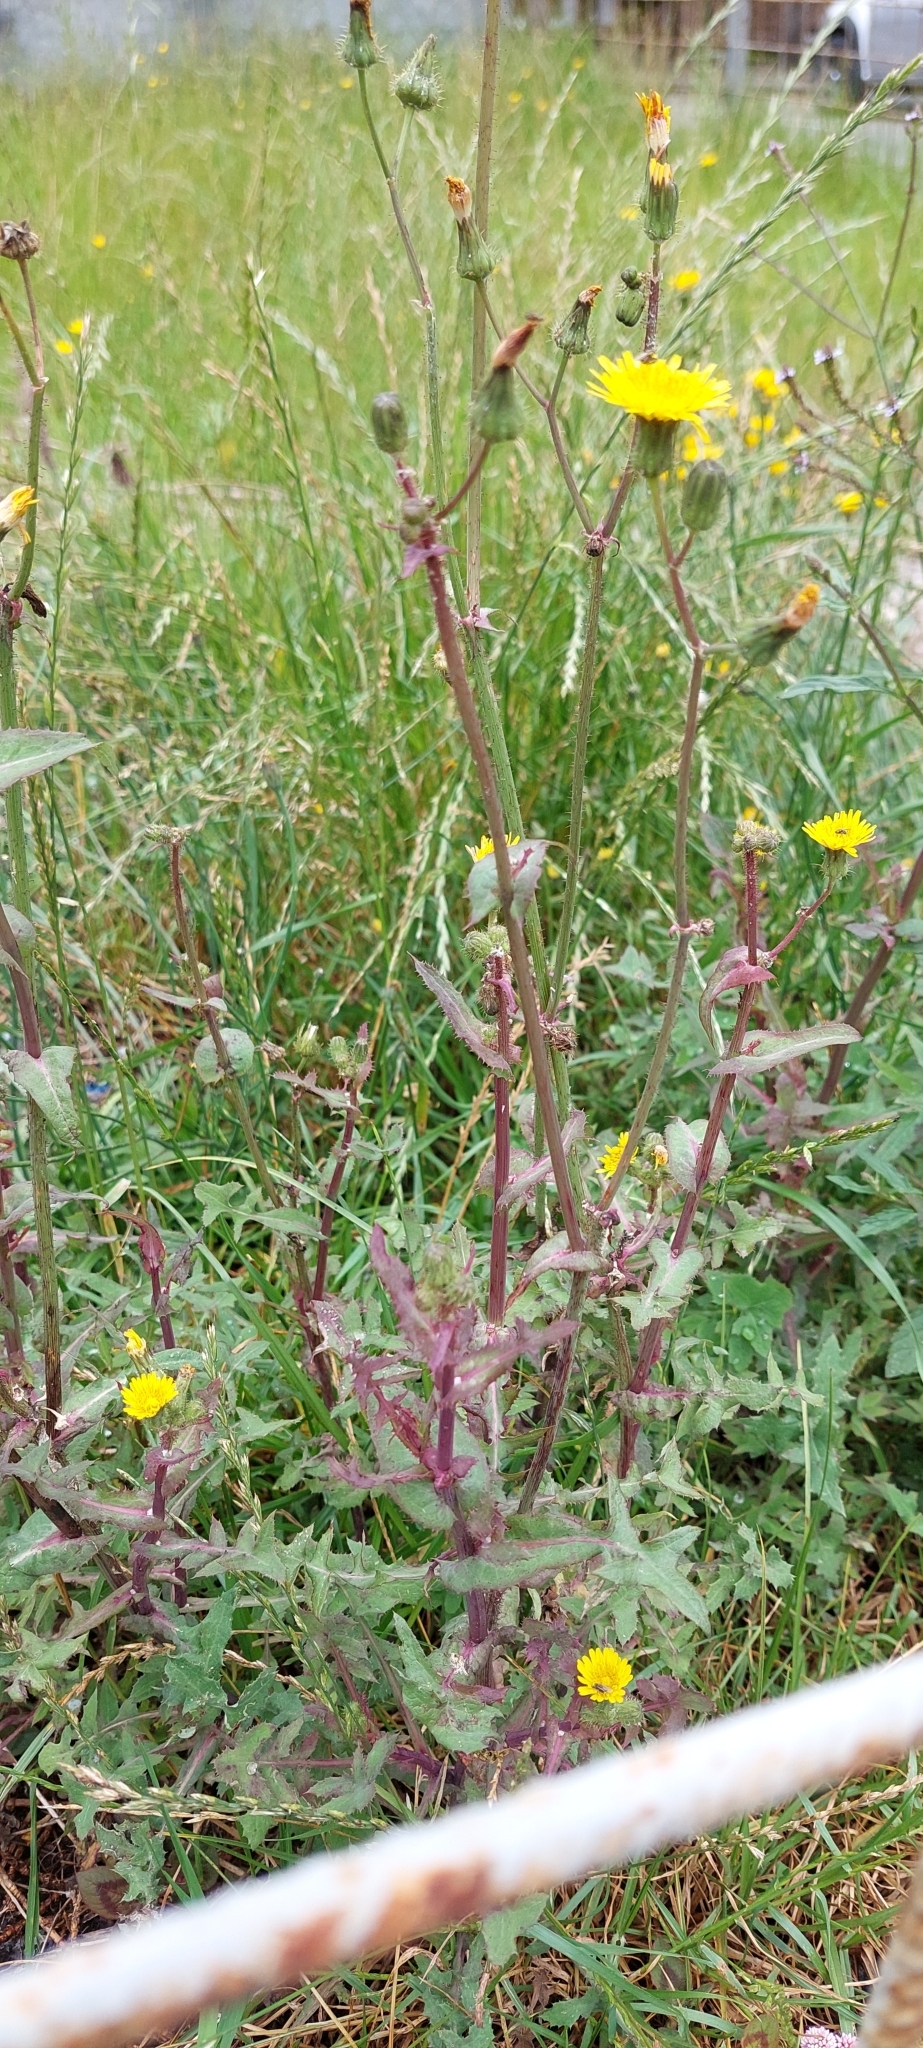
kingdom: Plantae
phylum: Tracheophyta
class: Magnoliopsida
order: Asterales
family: Asteraceae
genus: Sonchus
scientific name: Sonchus oleraceus
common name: Common sowthistle
